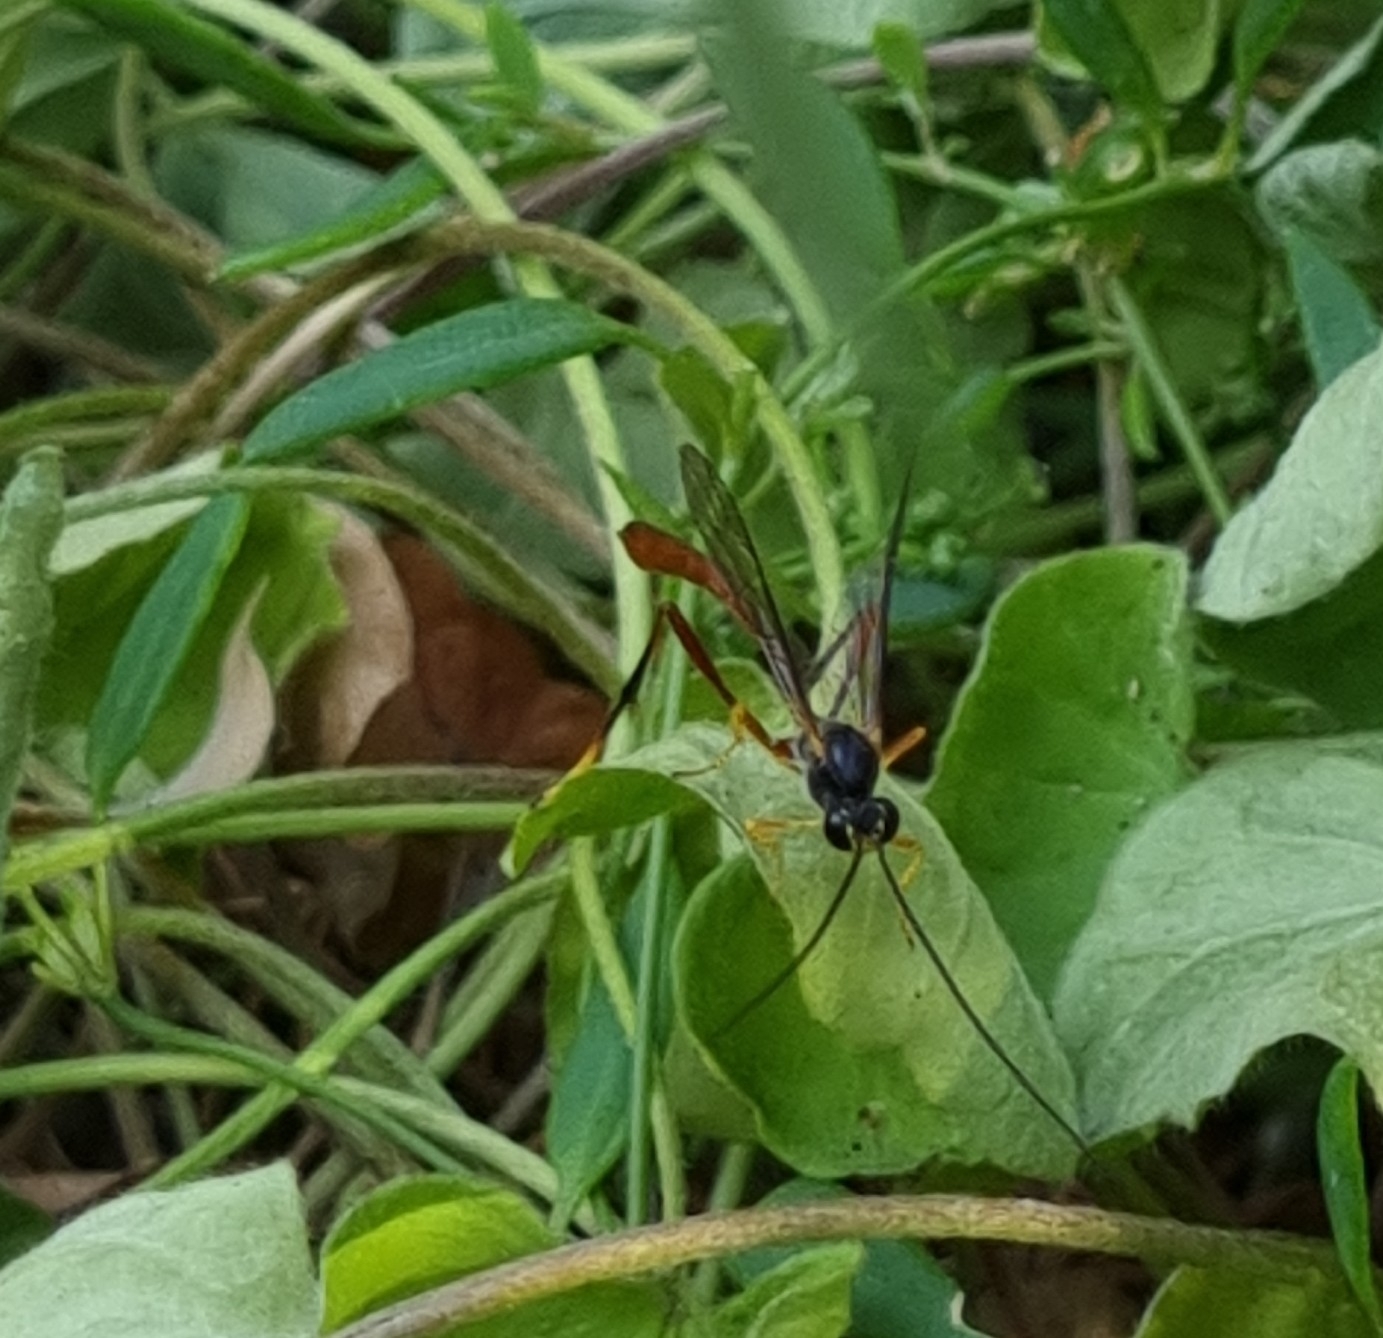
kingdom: Animalia
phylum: Arthropoda
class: Insecta
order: Hymenoptera
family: Ichneumonidae
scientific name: Ichneumonidae
